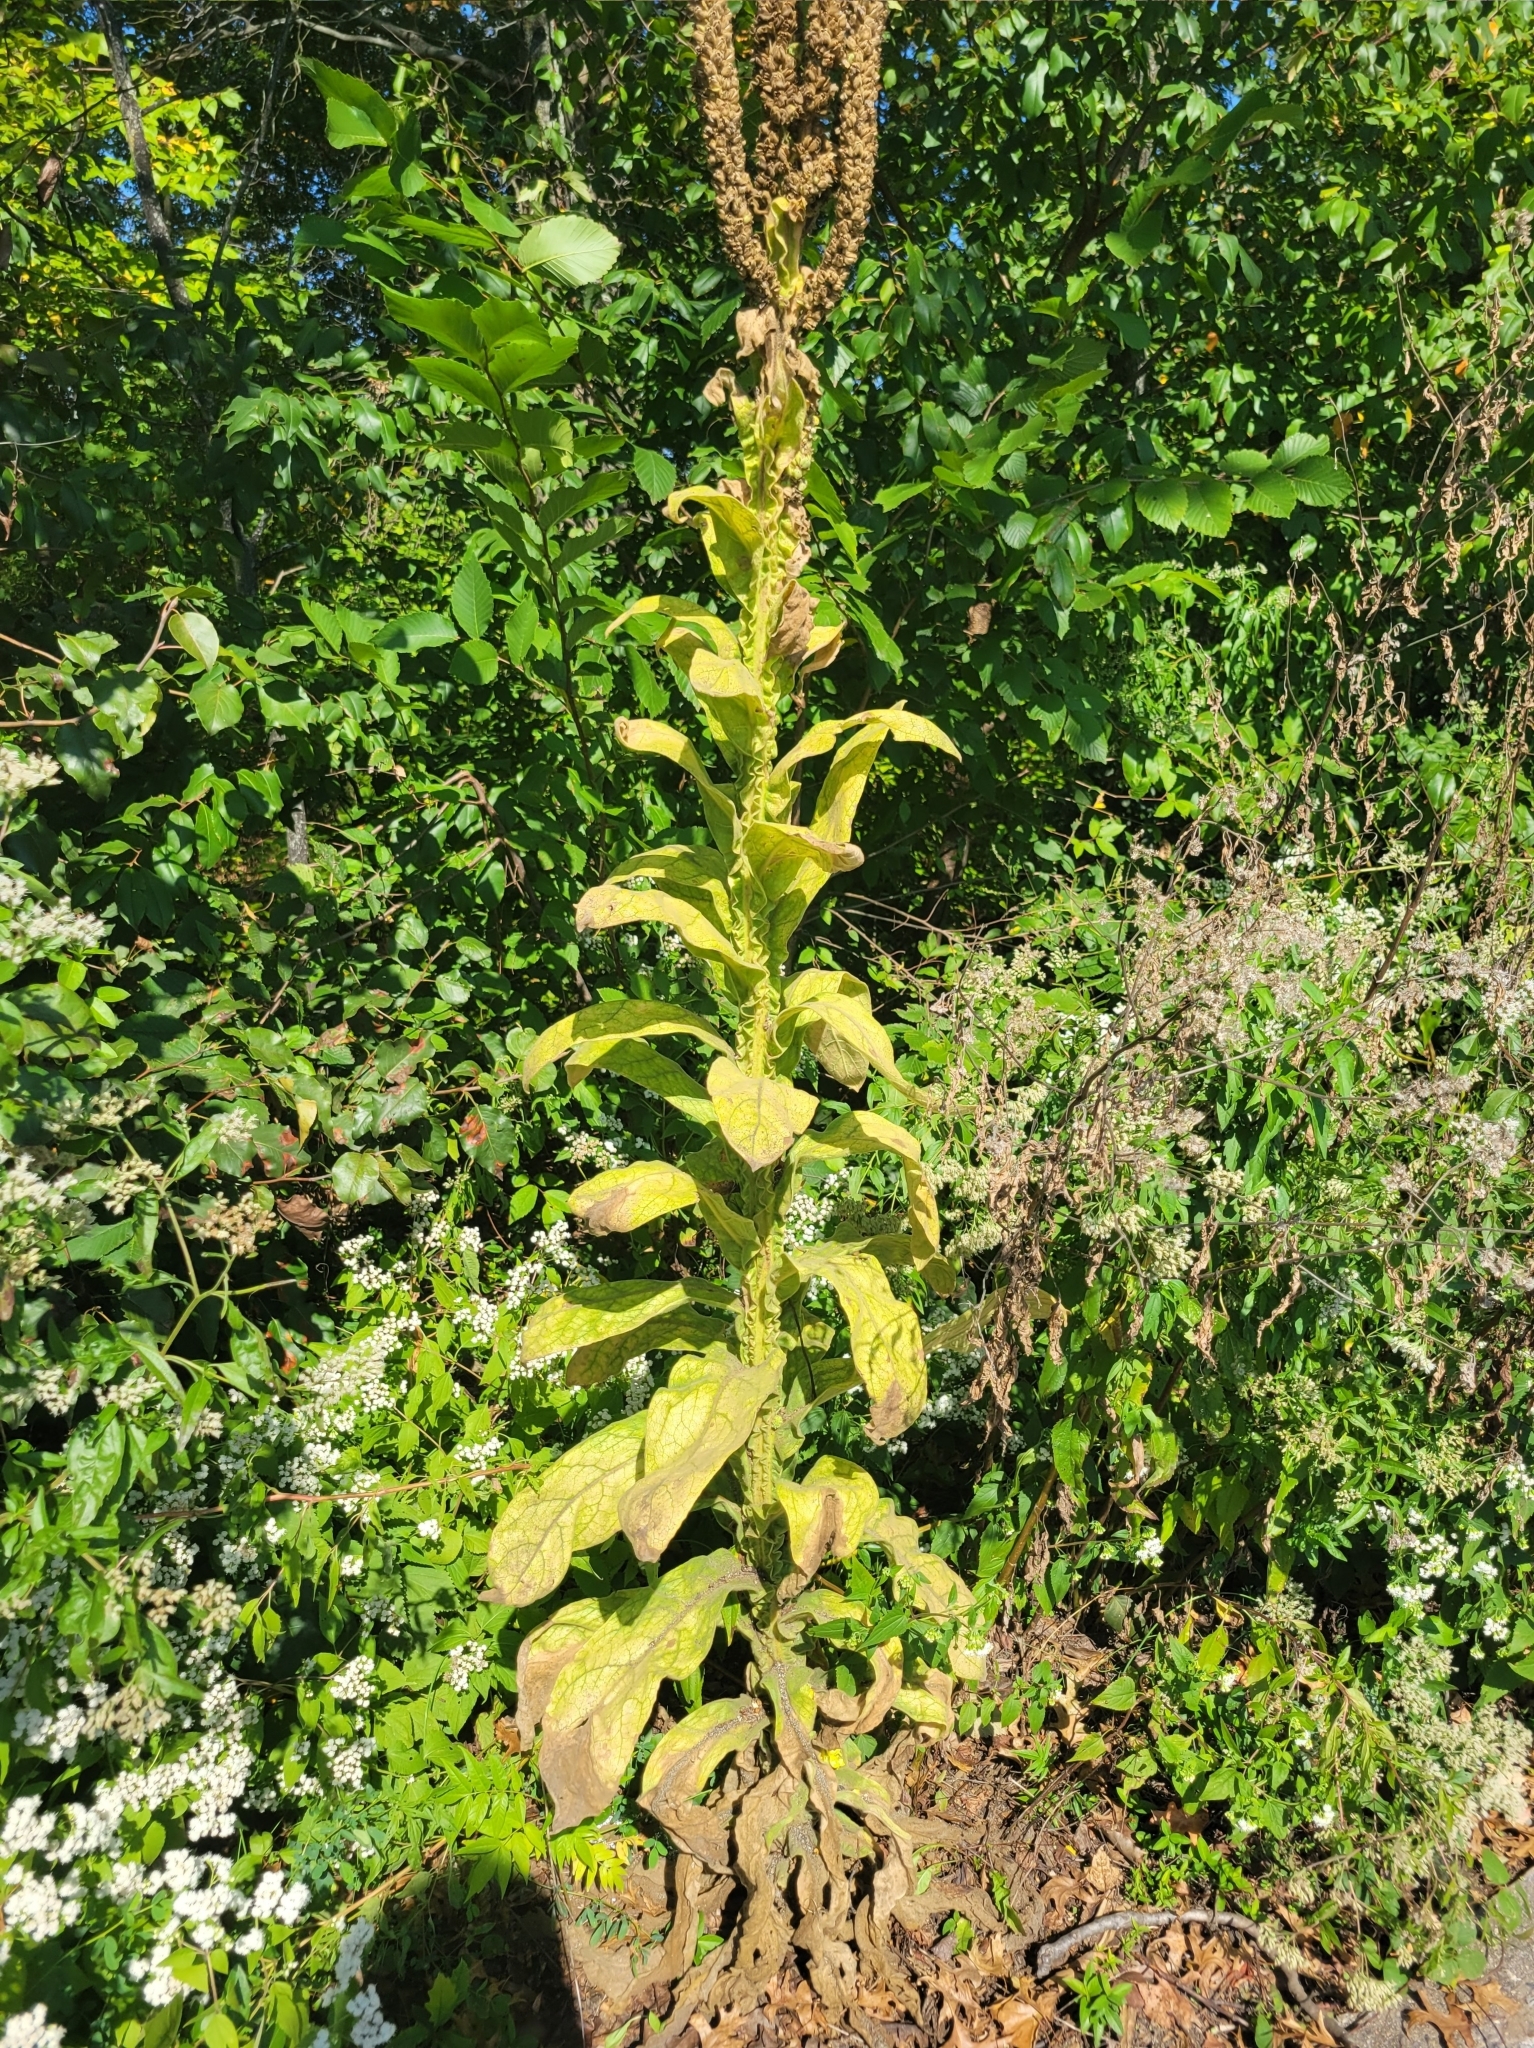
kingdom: Plantae
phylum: Tracheophyta
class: Magnoliopsida
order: Lamiales
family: Scrophulariaceae
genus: Verbascum
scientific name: Verbascum thapsus
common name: Common mullein
